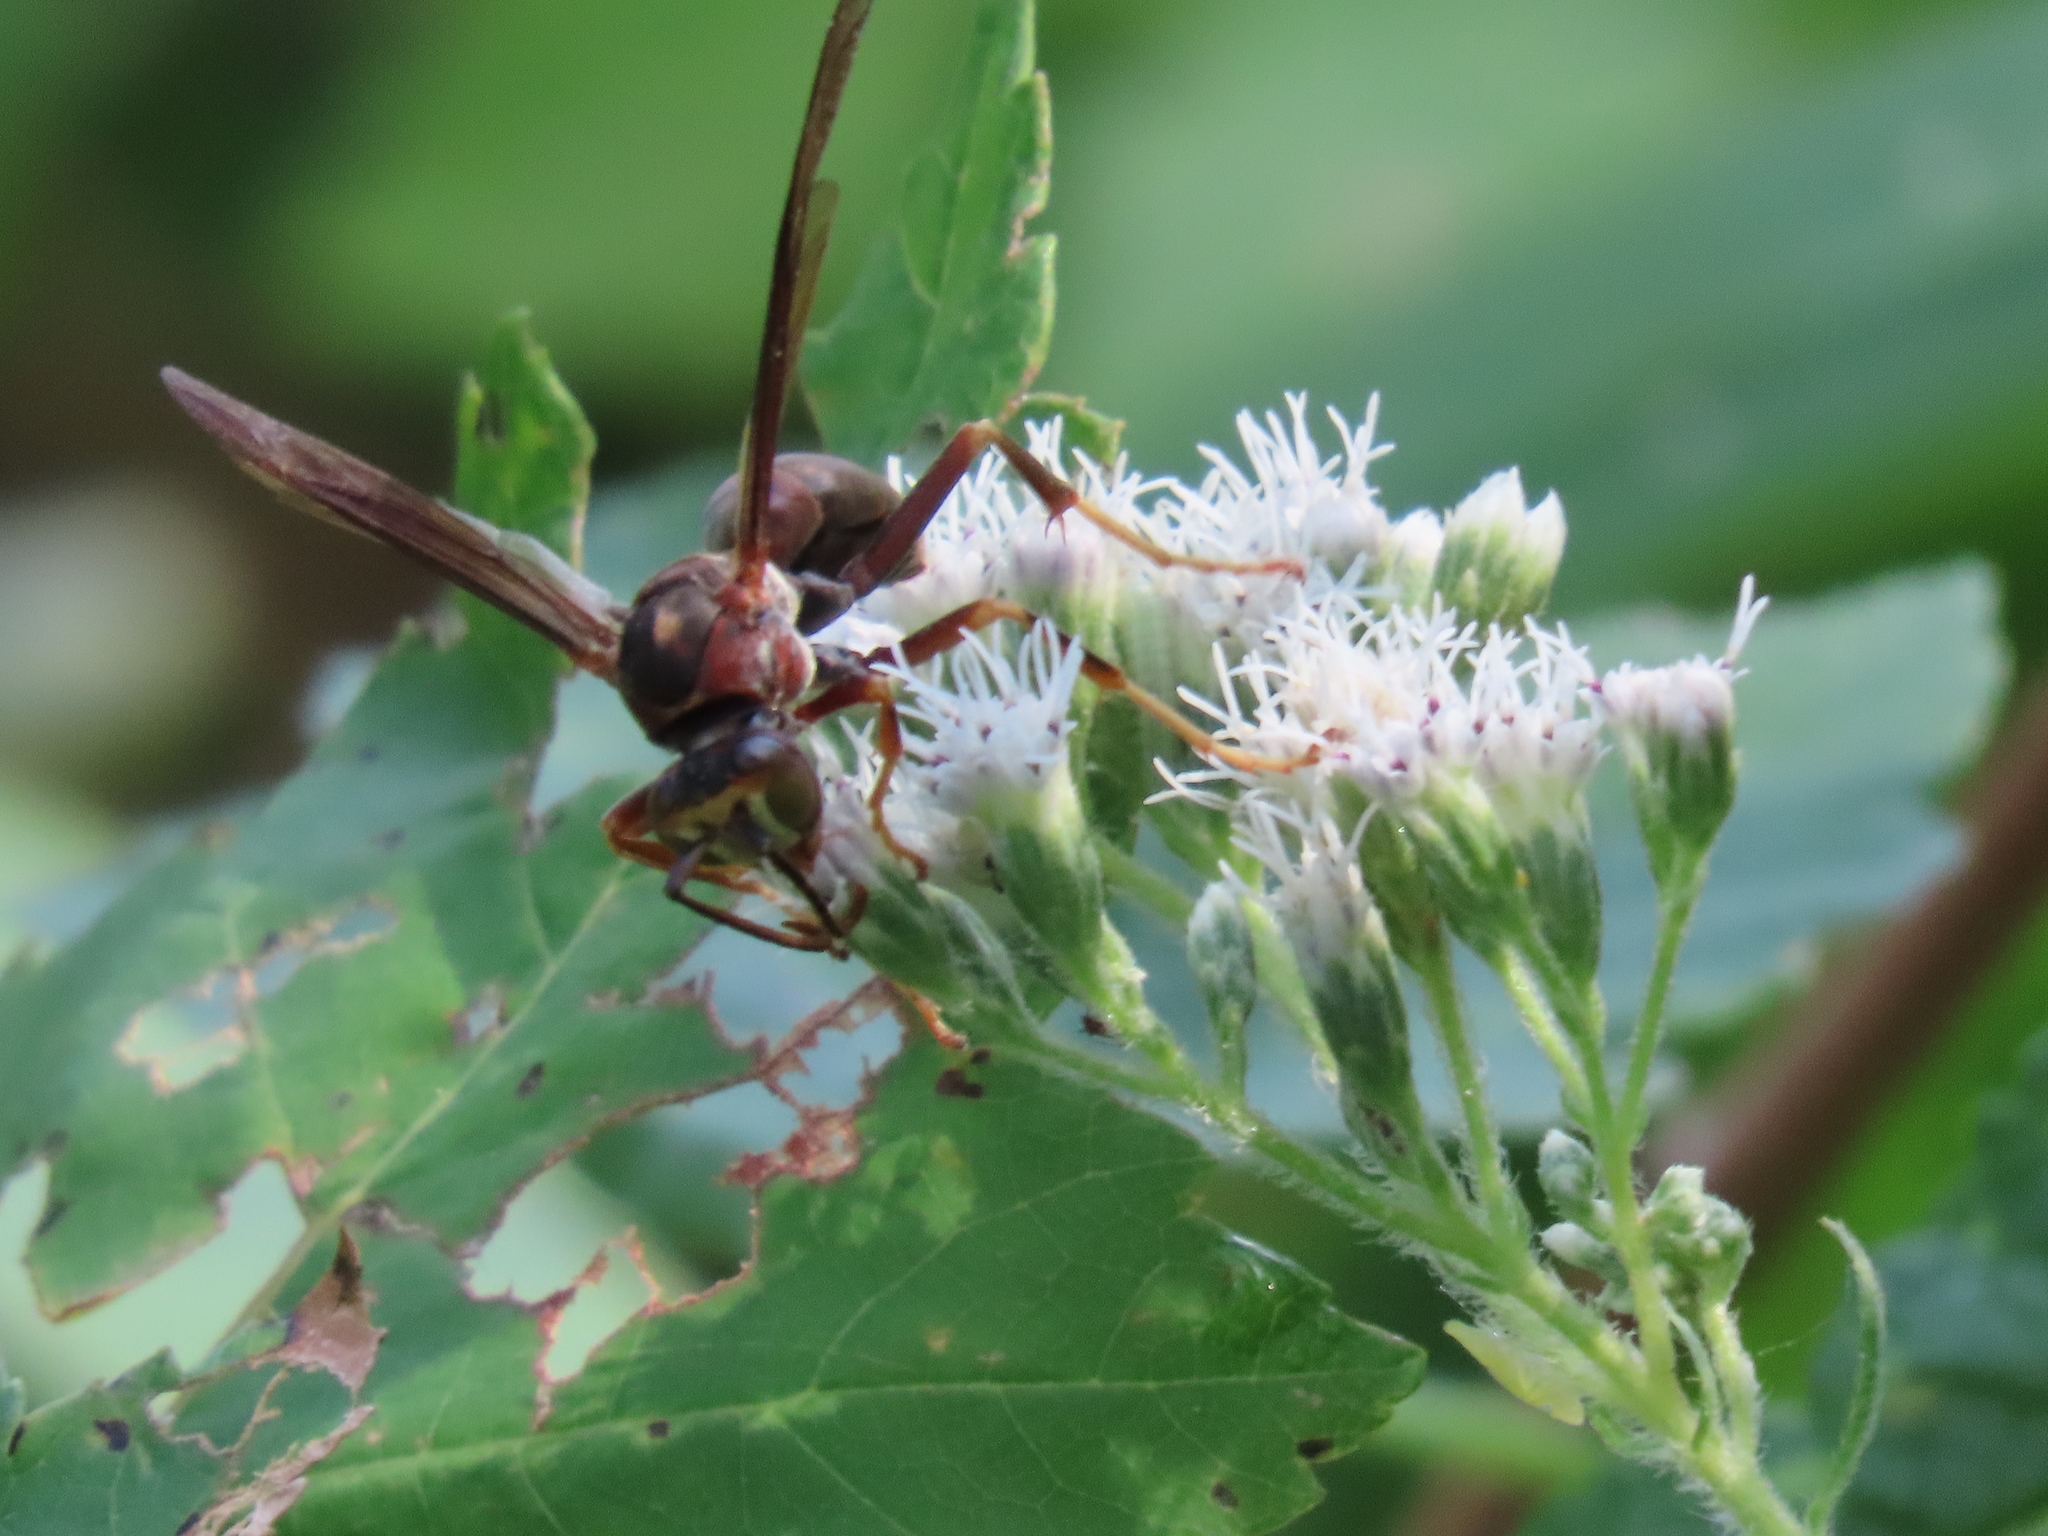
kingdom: Animalia
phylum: Arthropoda
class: Insecta
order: Hymenoptera
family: Eumenidae
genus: Polistes
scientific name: Polistes metricus
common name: Metric paper wasp
